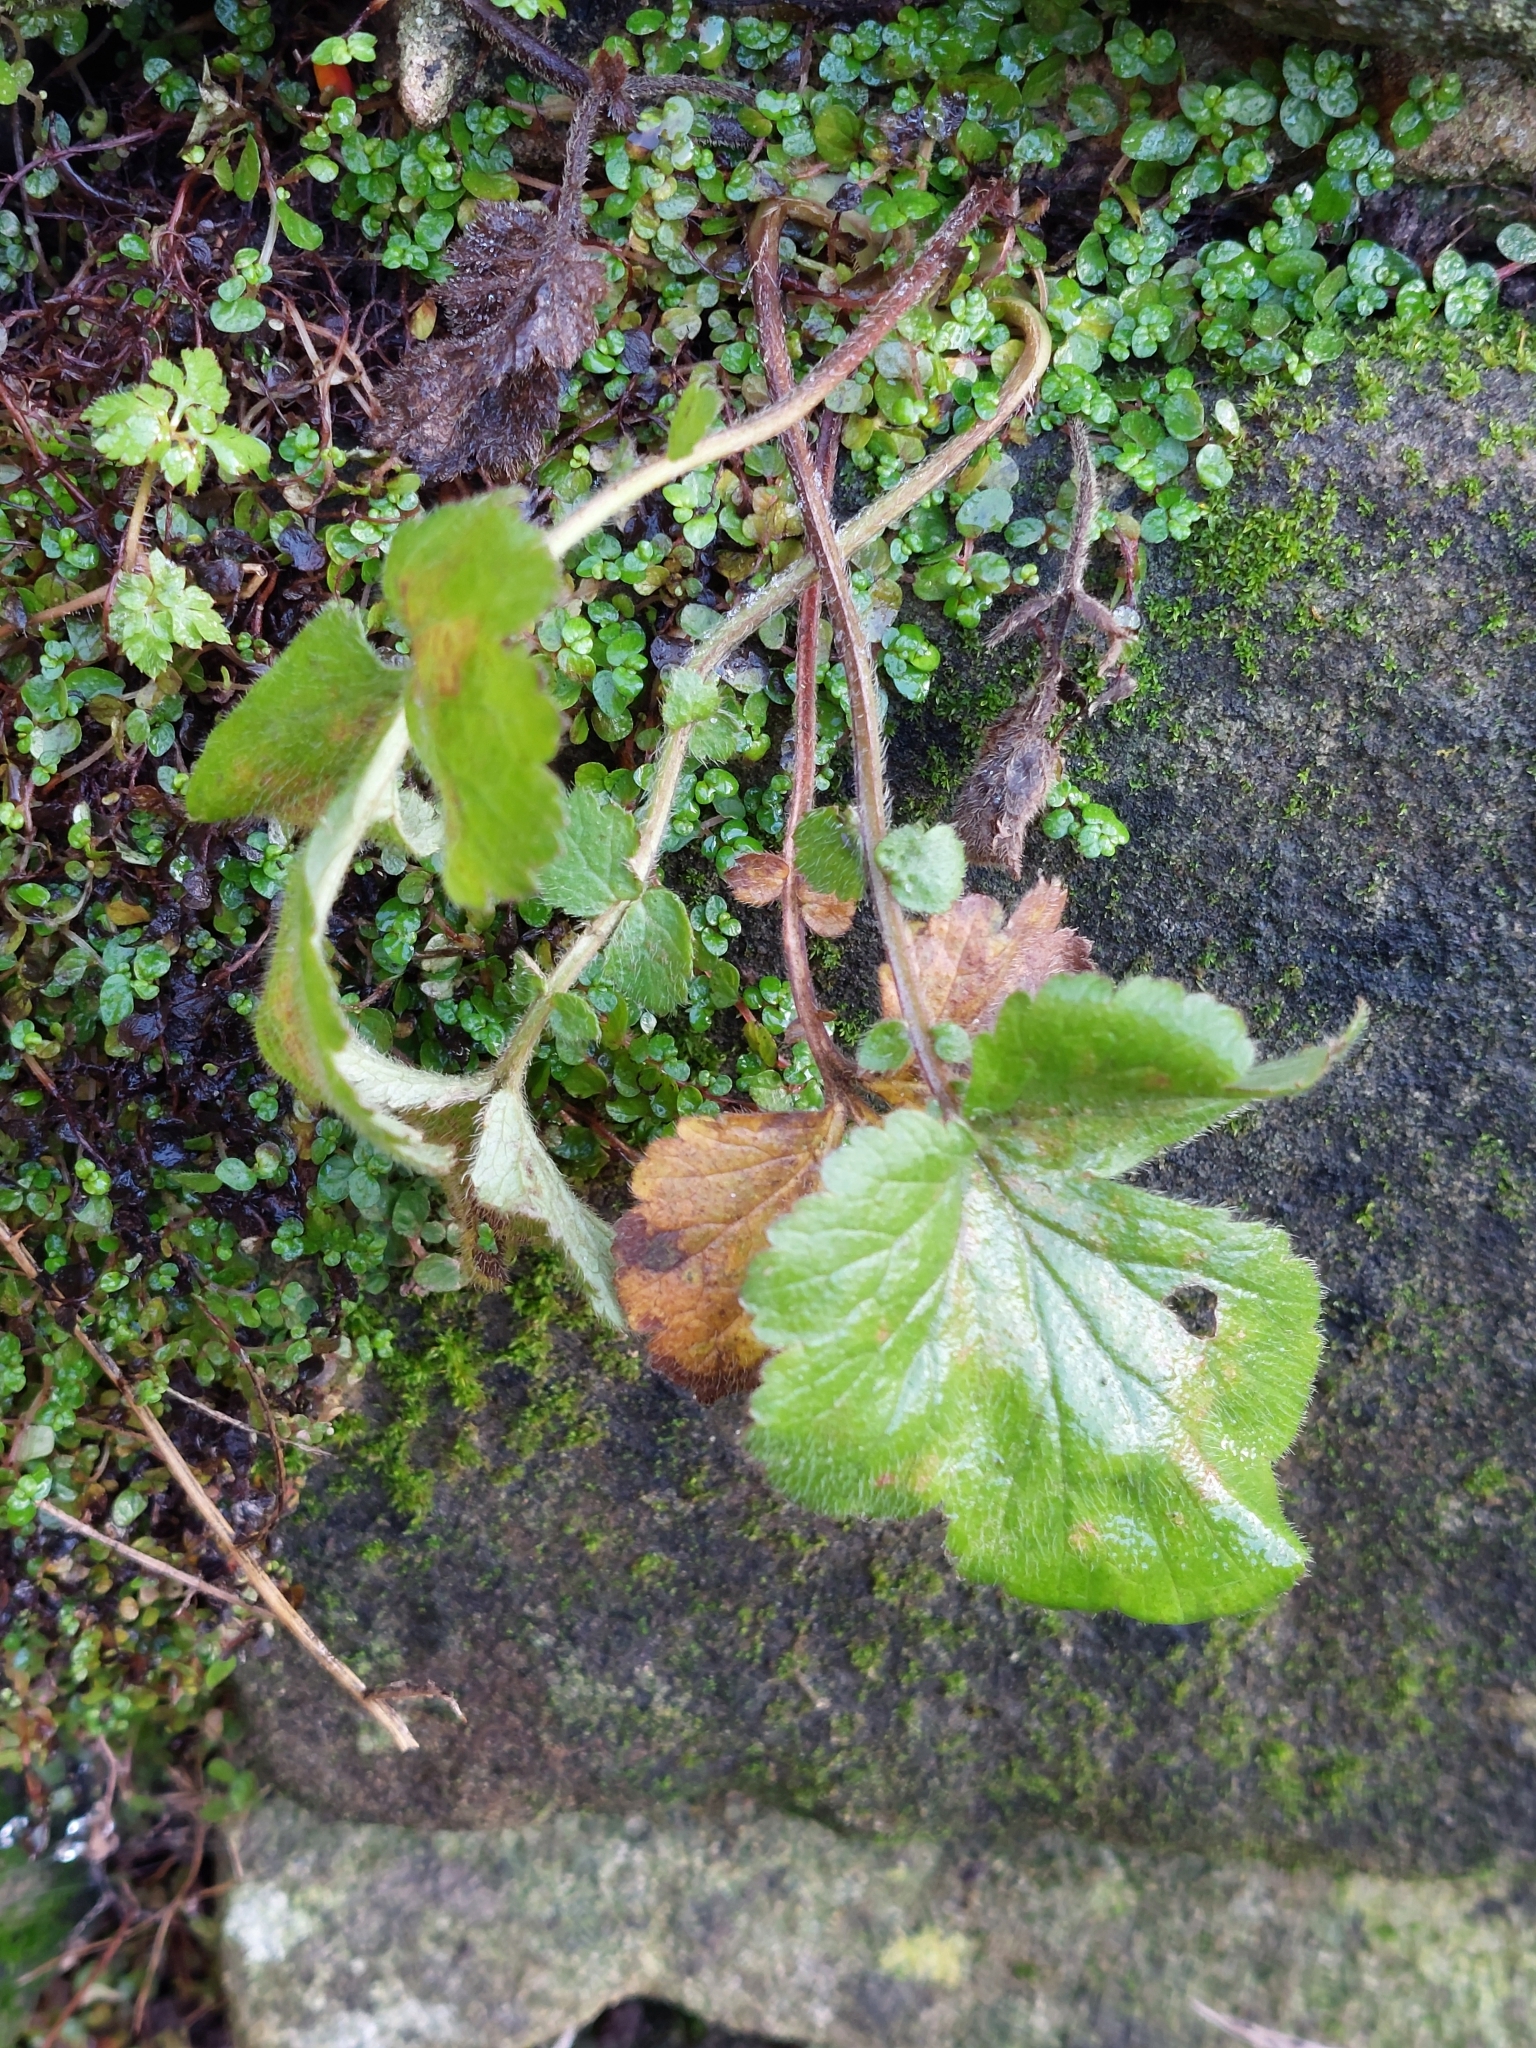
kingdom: Plantae
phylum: Tracheophyta
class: Magnoliopsida
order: Rosales
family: Rosaceae
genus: Geum
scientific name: Geum urbanum
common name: Wood avens
